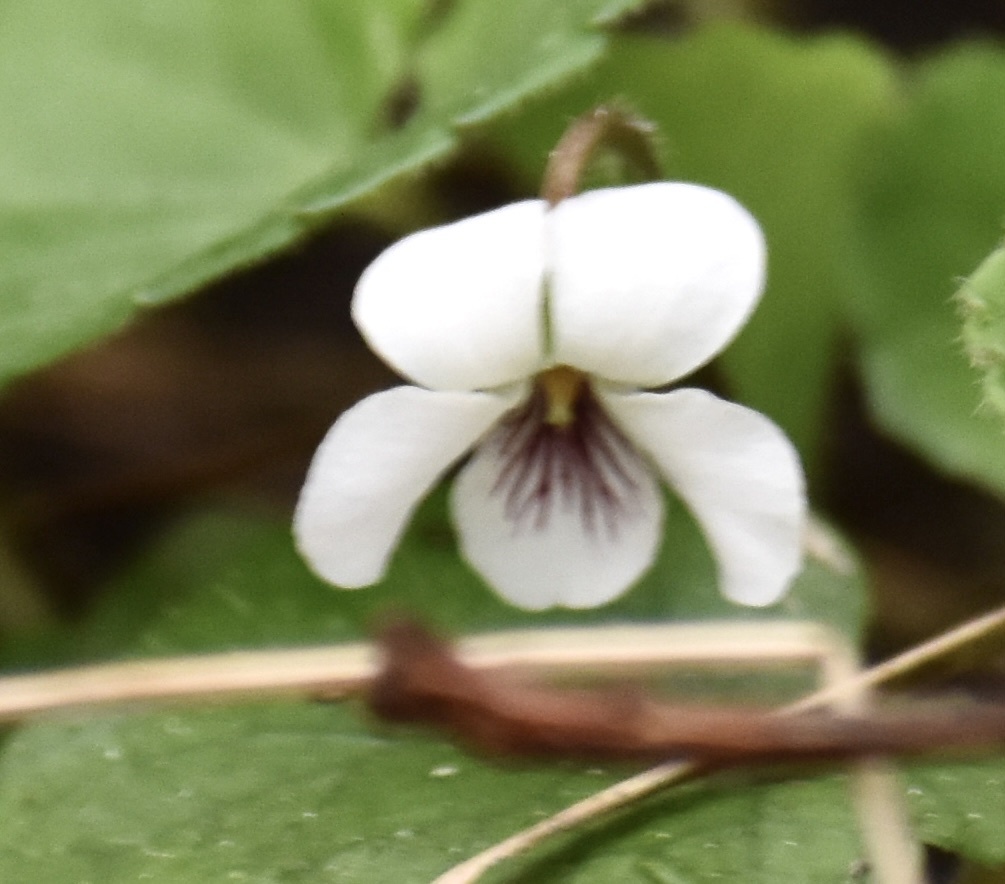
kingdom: Plantae
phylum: Tracheophyta
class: Magnoliopsida
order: Malpighiales
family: Violaceae
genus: Viola
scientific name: Viola renifolia
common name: Kidney-leaf violet
